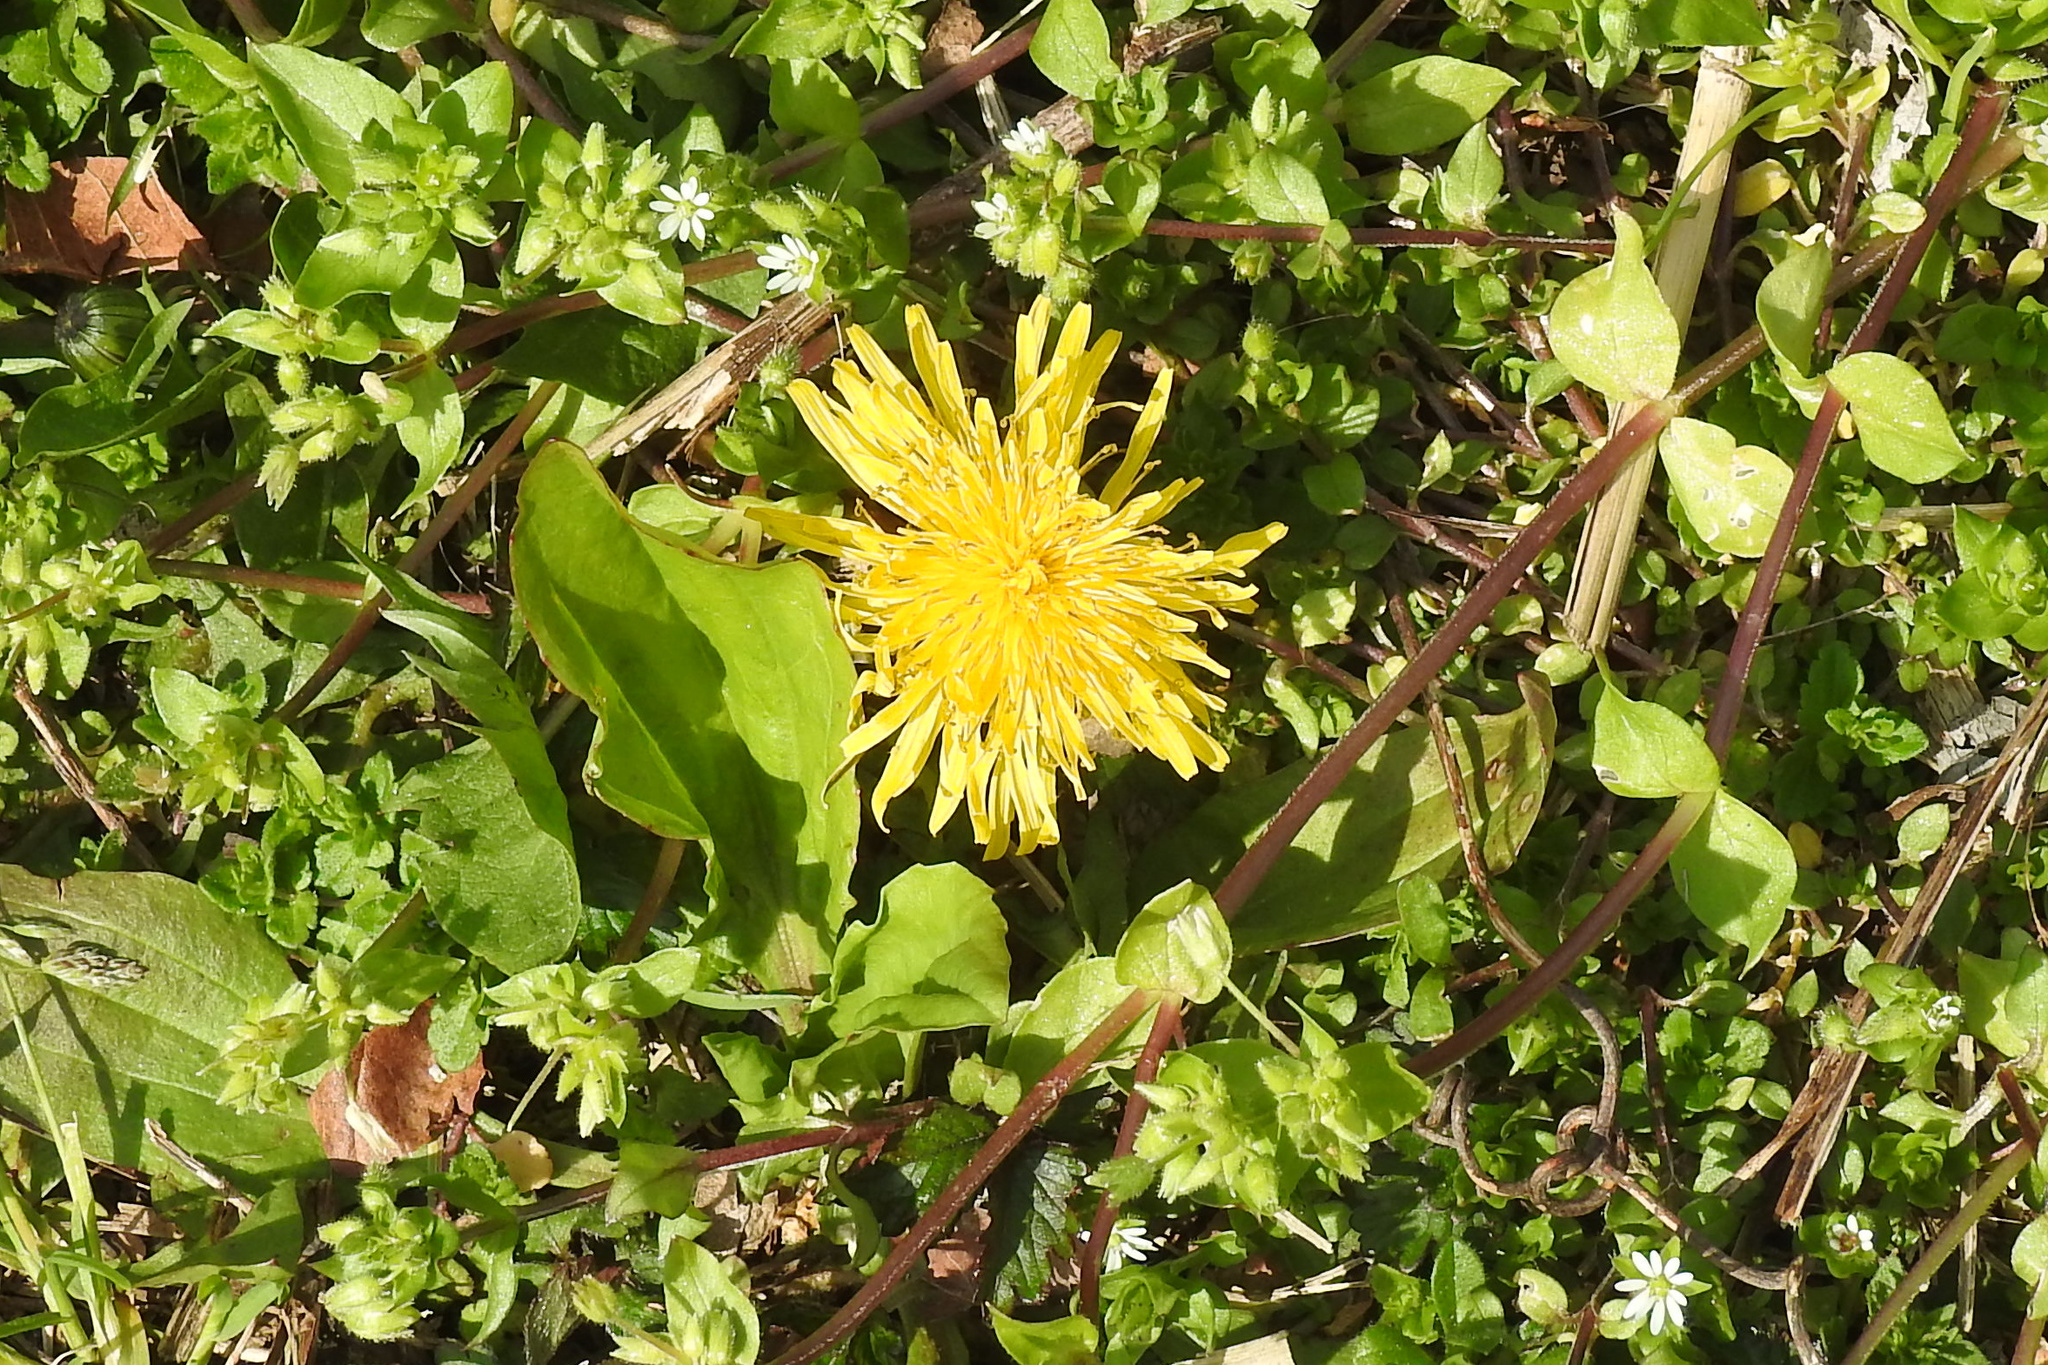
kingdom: Plantae
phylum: Tracheophyta
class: Magnoliopsida
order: Asterales
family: Asteraceae
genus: Taraxacum
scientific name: Taraxacum officinale
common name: Common dandelion
